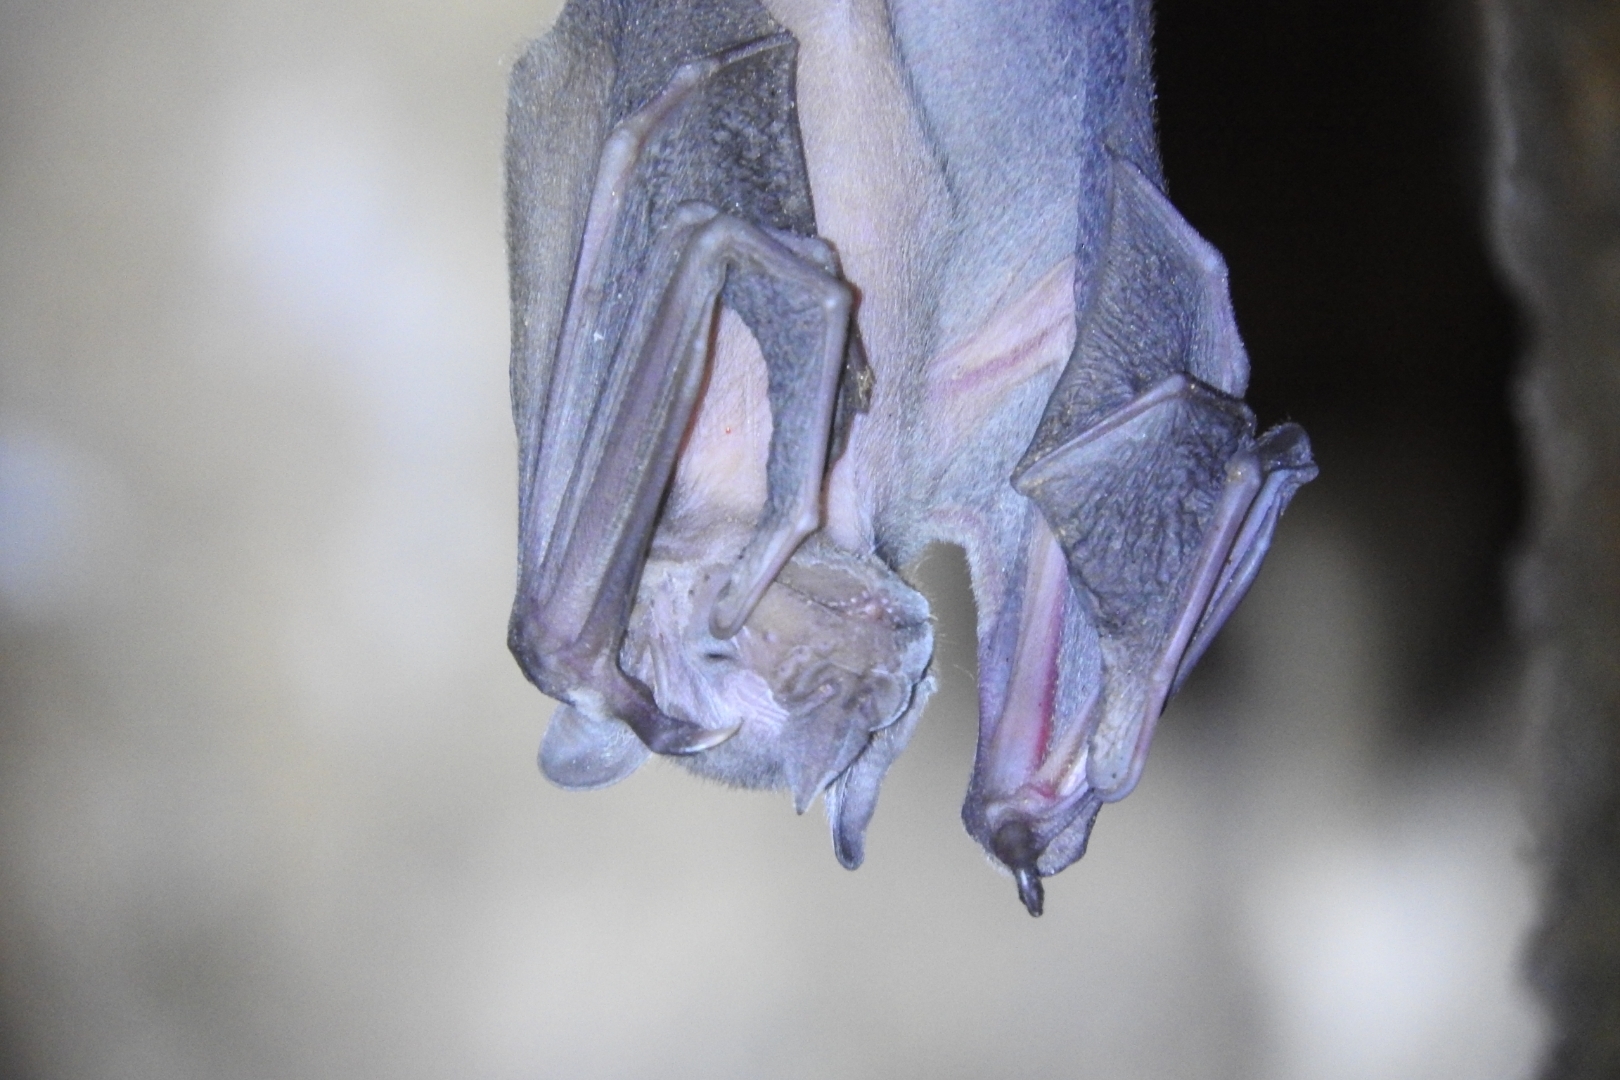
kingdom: Animalia
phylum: Chordata
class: Mammalia
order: Chiroptera
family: Phyllostomidae
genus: Artibeus
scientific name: Artibeus jamaicensis
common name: Jamaican fruit-eating bat
